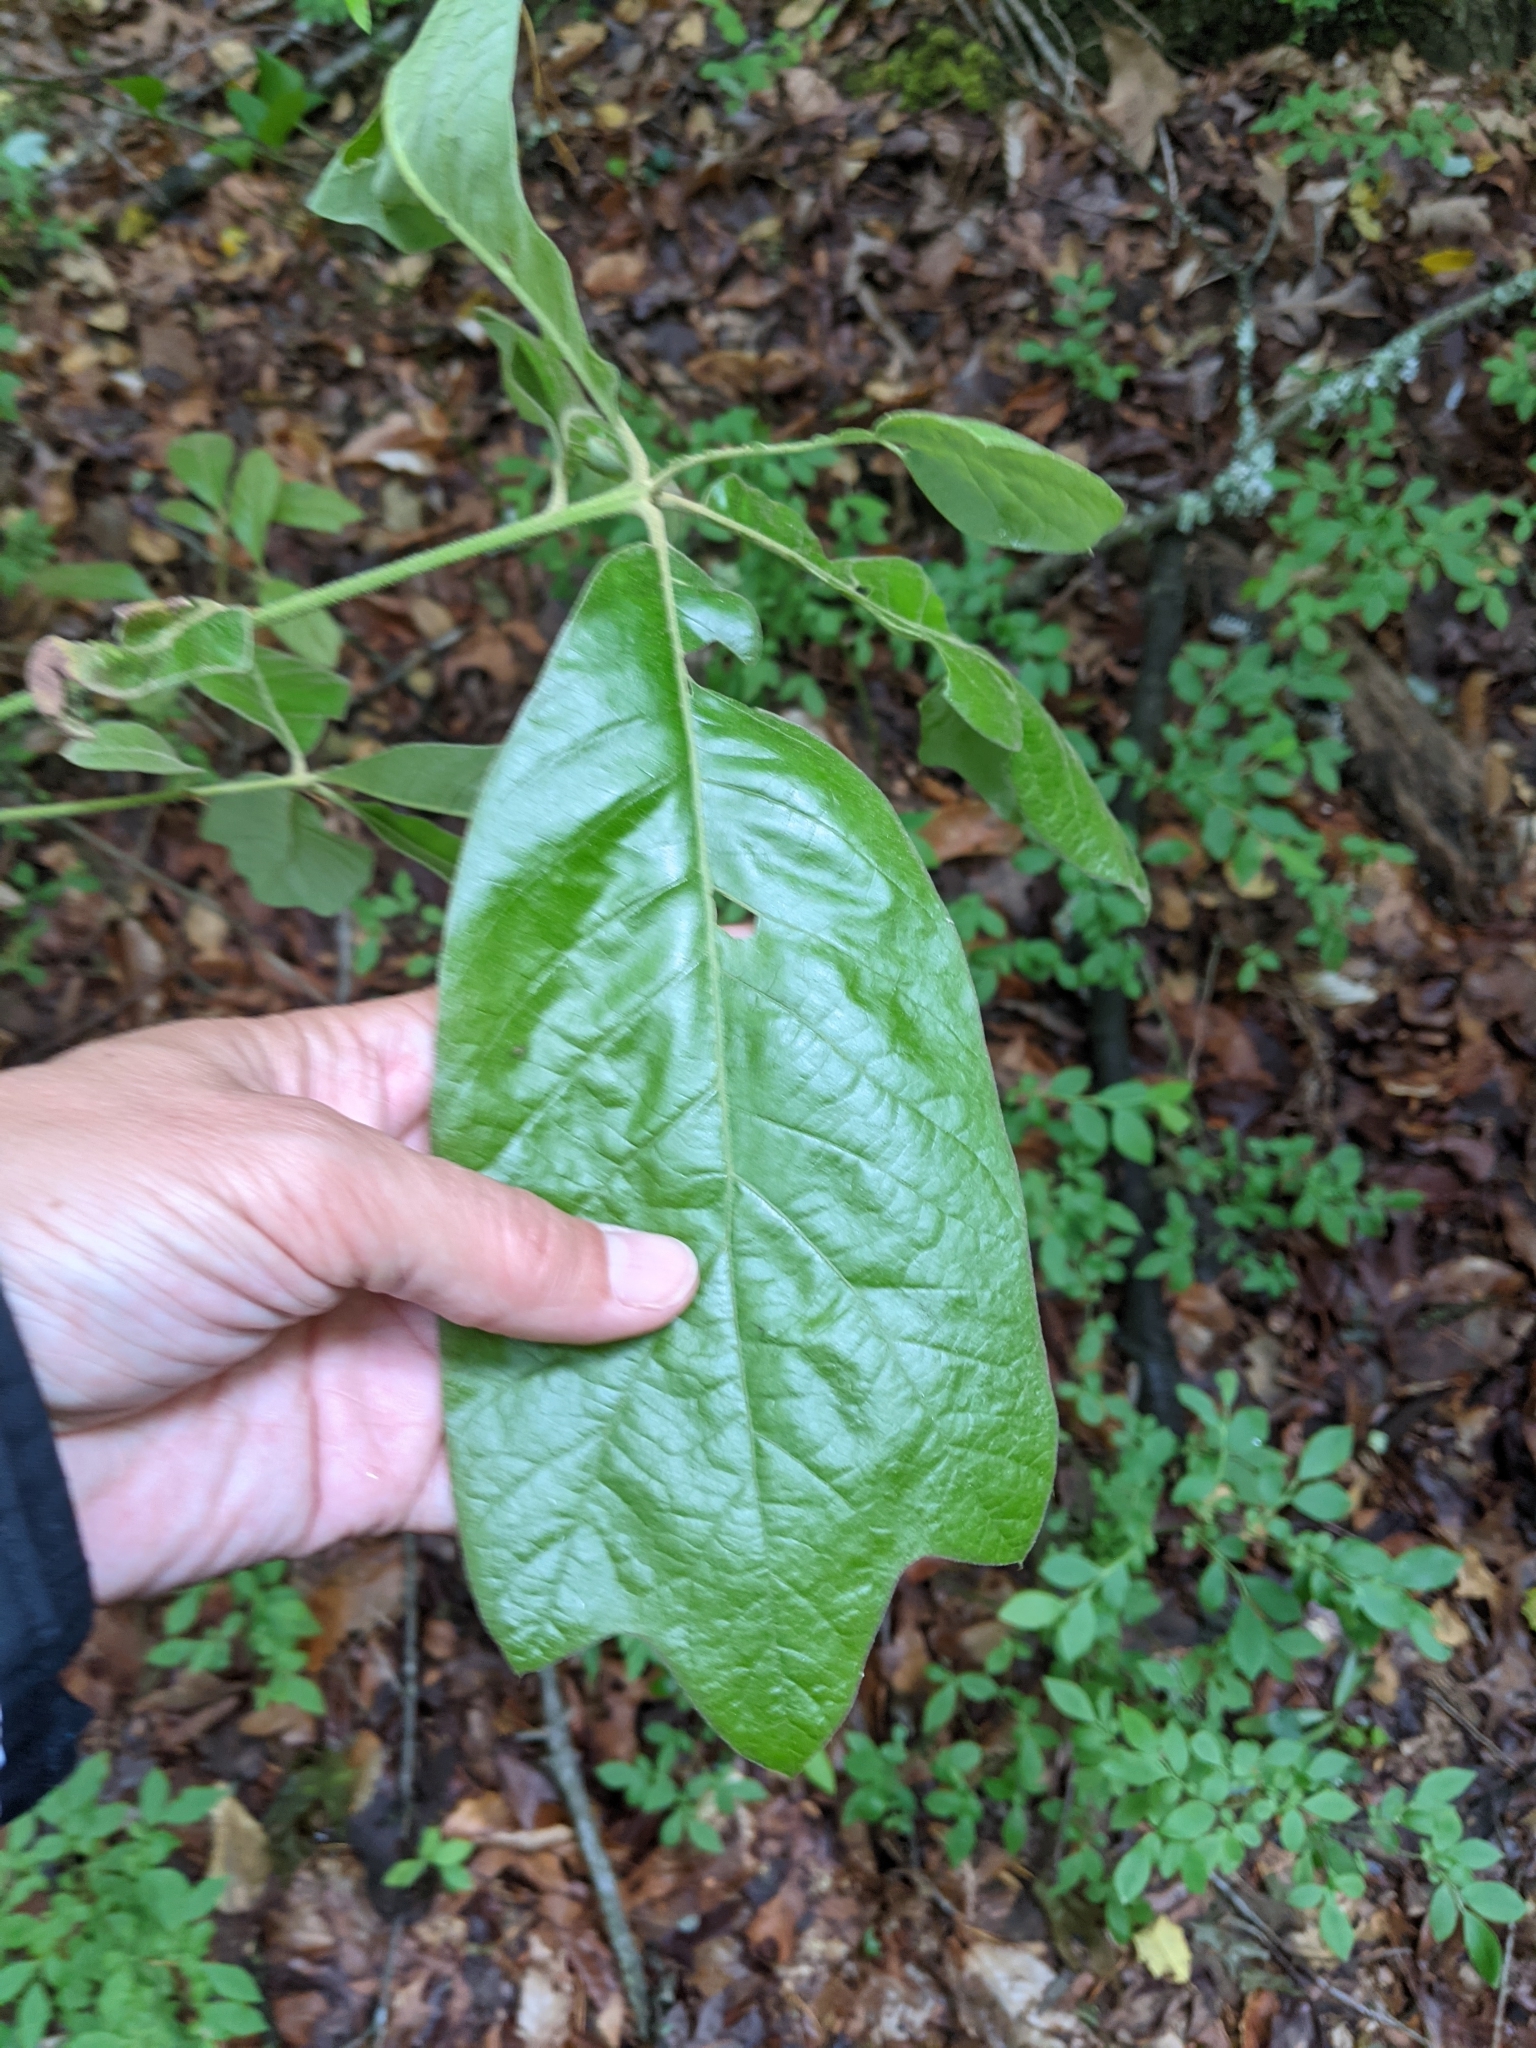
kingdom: Plantae
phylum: Tracheophyta
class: Magnoliopsida
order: Fagales
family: Fagaceae
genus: Quercus
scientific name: Quercus falcata
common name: Southern red oak
